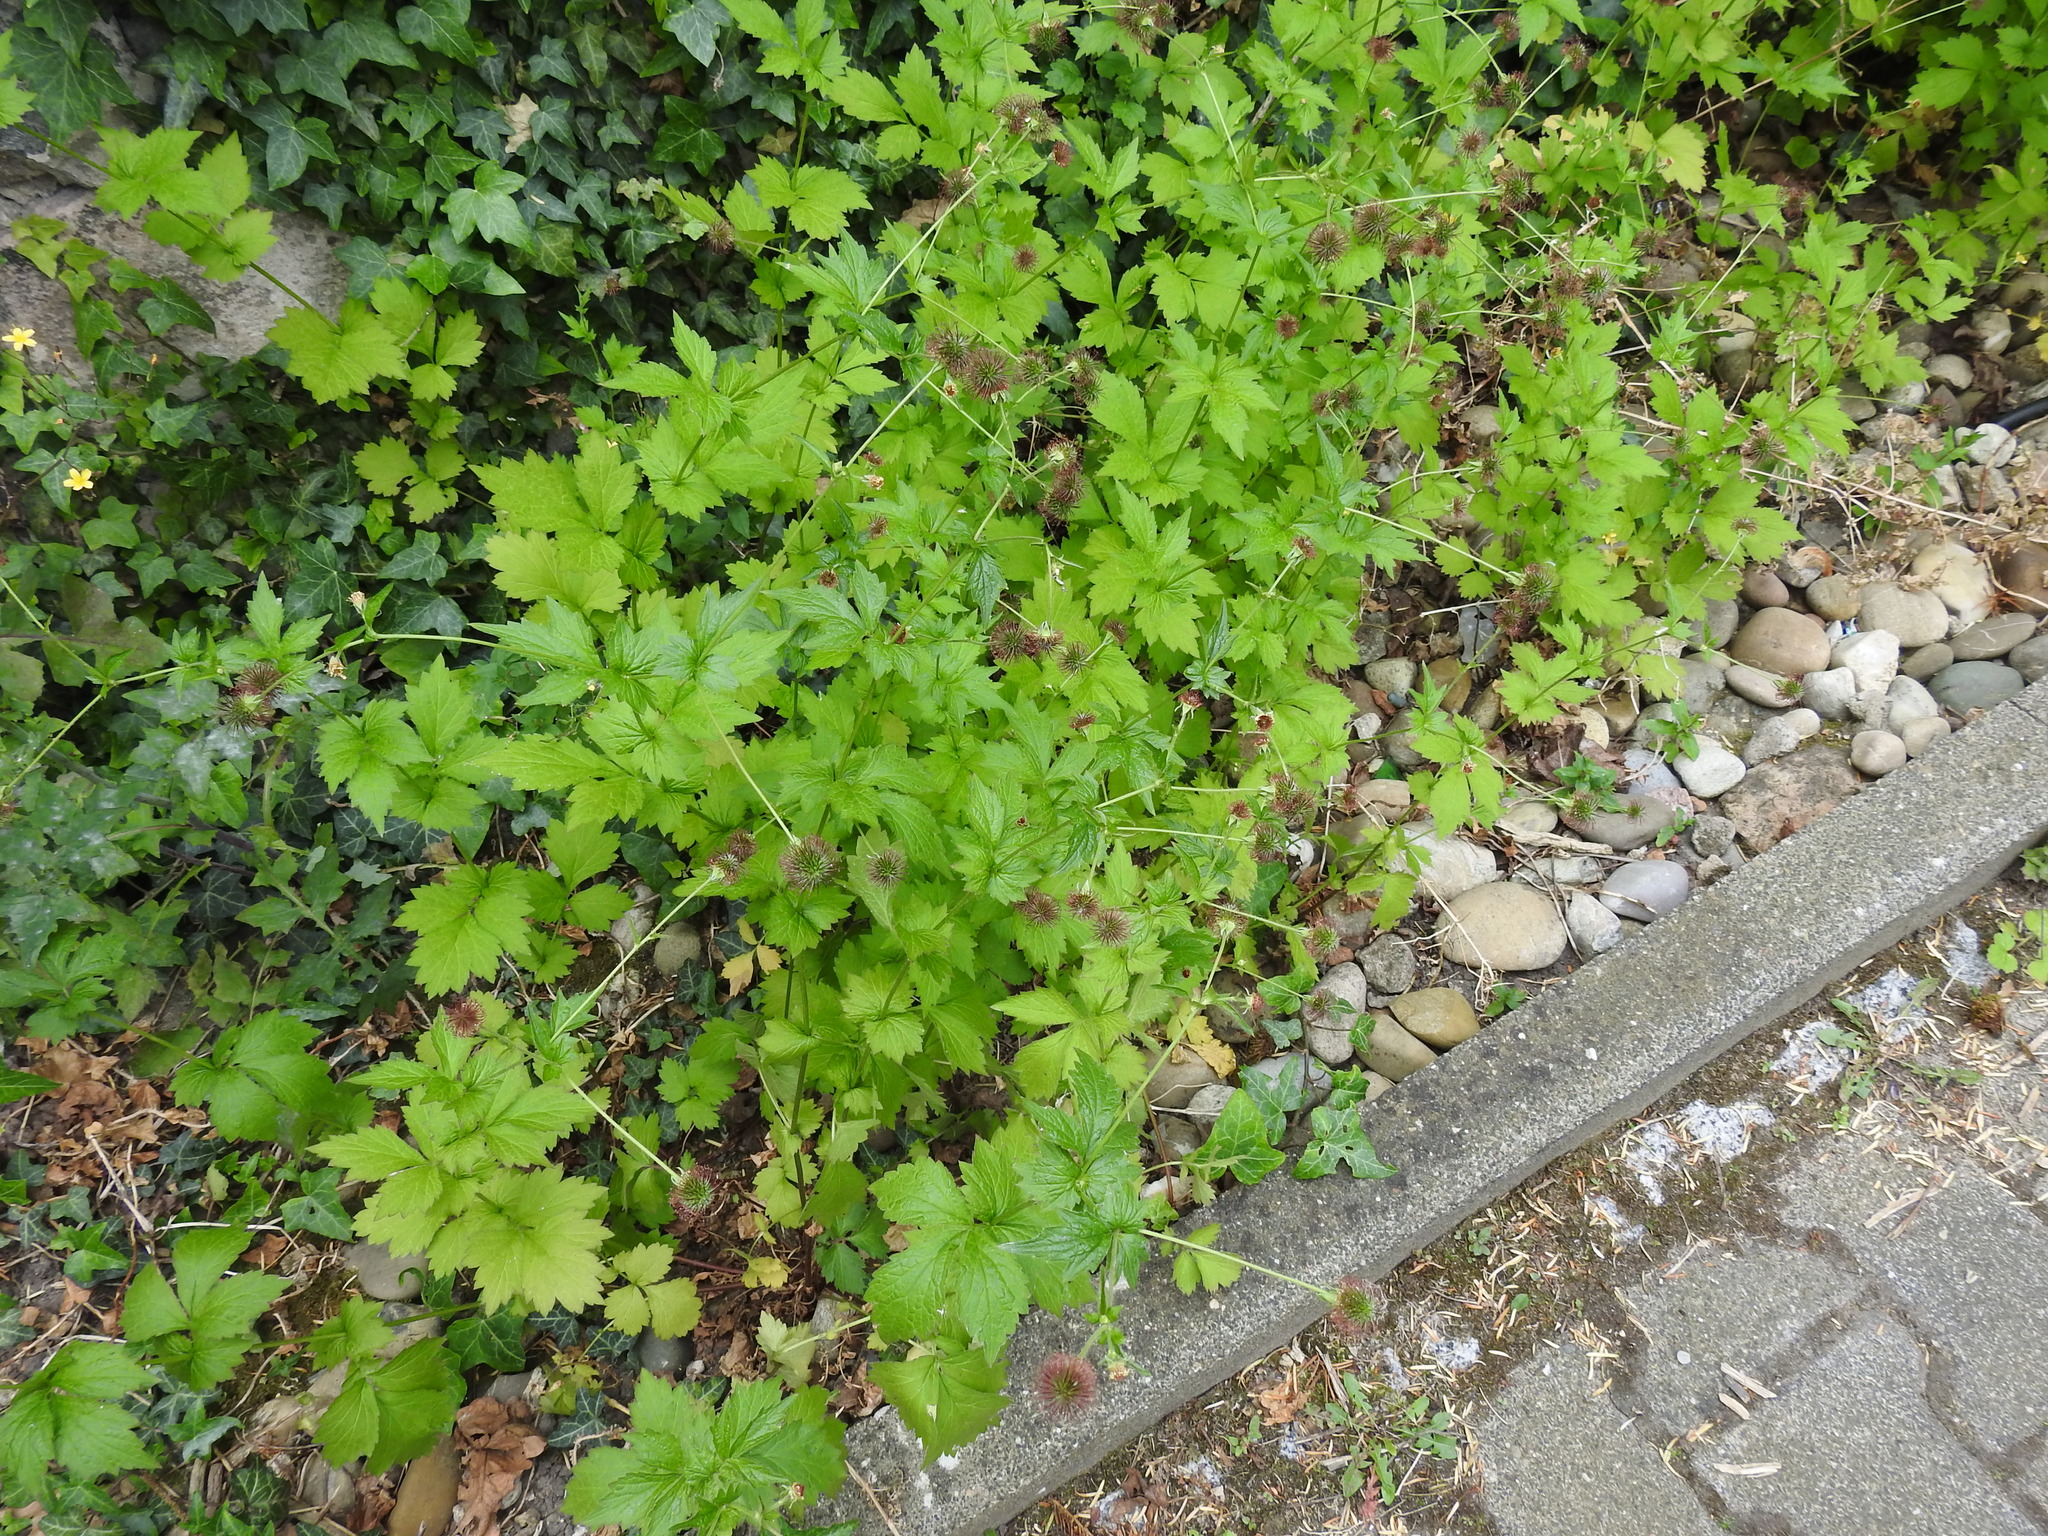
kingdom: Plantae
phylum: Tracheophyta
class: Magnoliopsida
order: Rosales
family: Rosaceae
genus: Geum
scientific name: Geum urbanum
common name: Wood avens
